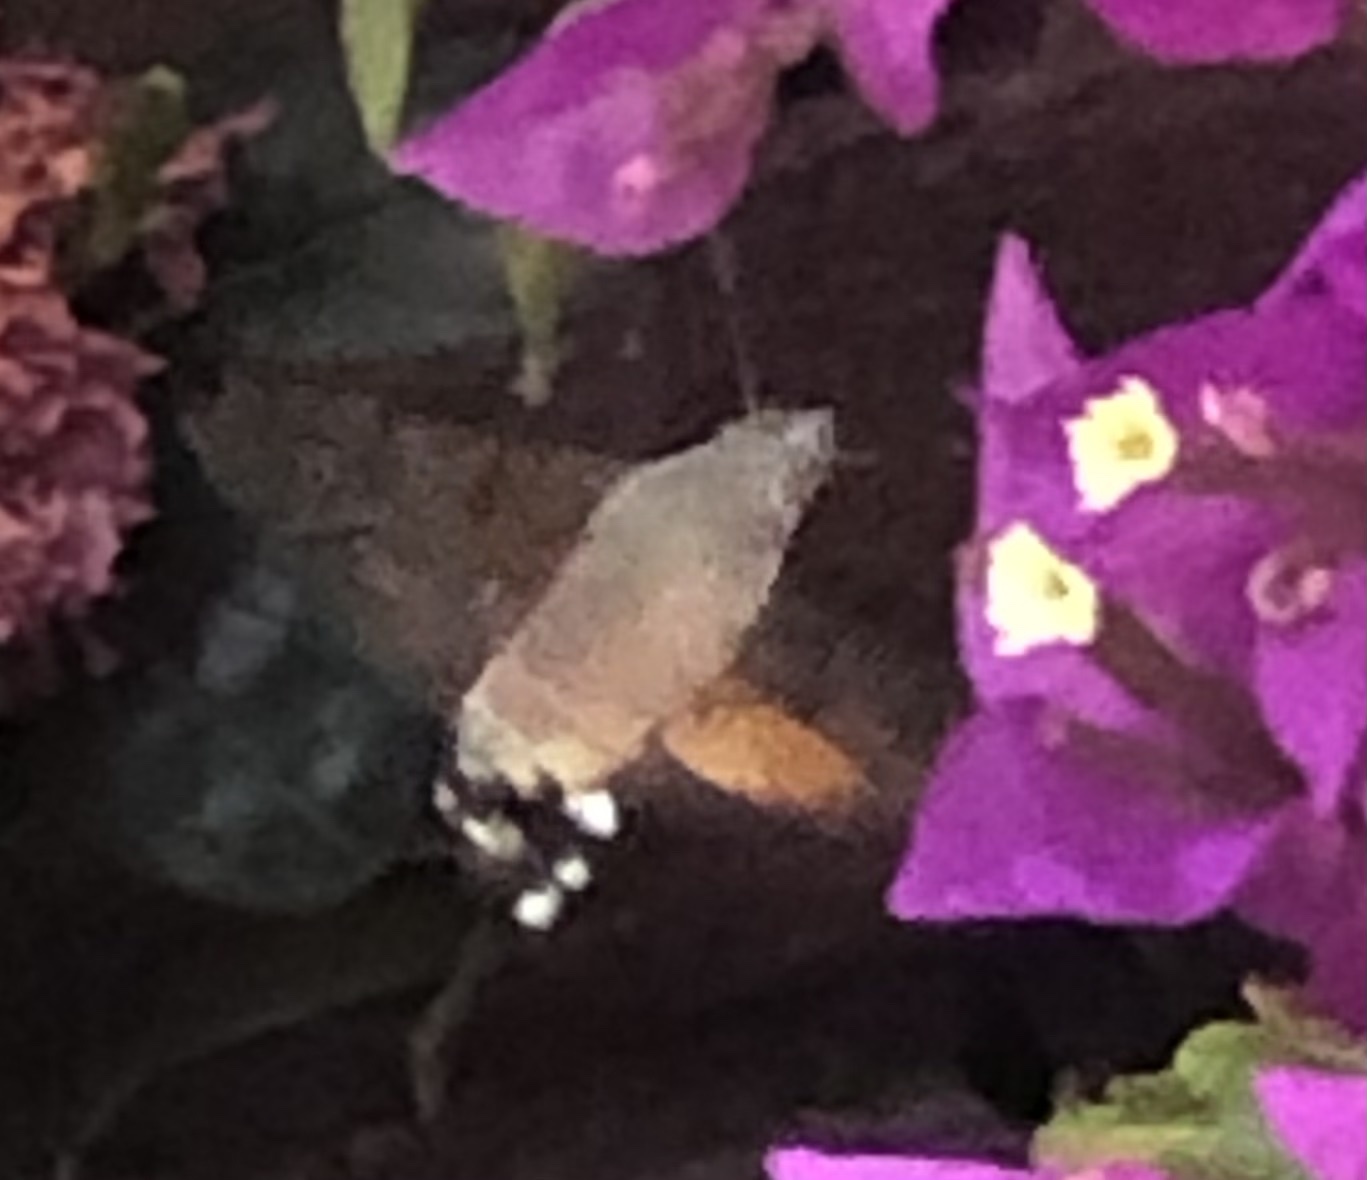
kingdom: Animalia
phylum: Arthropoda
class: Insecta
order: Lepidoptera
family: Sphingidae
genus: Macroglossum
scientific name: Macroglossum stellatarum
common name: Humming-bird hawk-moth
